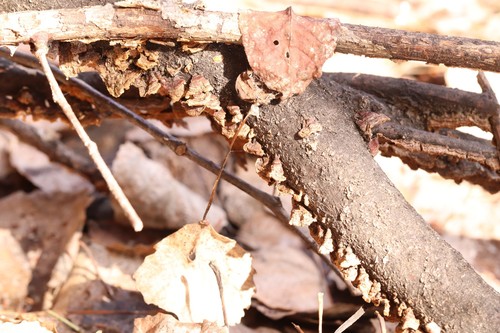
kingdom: Fungi
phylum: Basidiomycota
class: Agaricomycetes
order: Hymenochaetales
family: Hymenochaetaceae
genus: Hydnoporia
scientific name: Hydnoporia tabacina
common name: Willow glue
